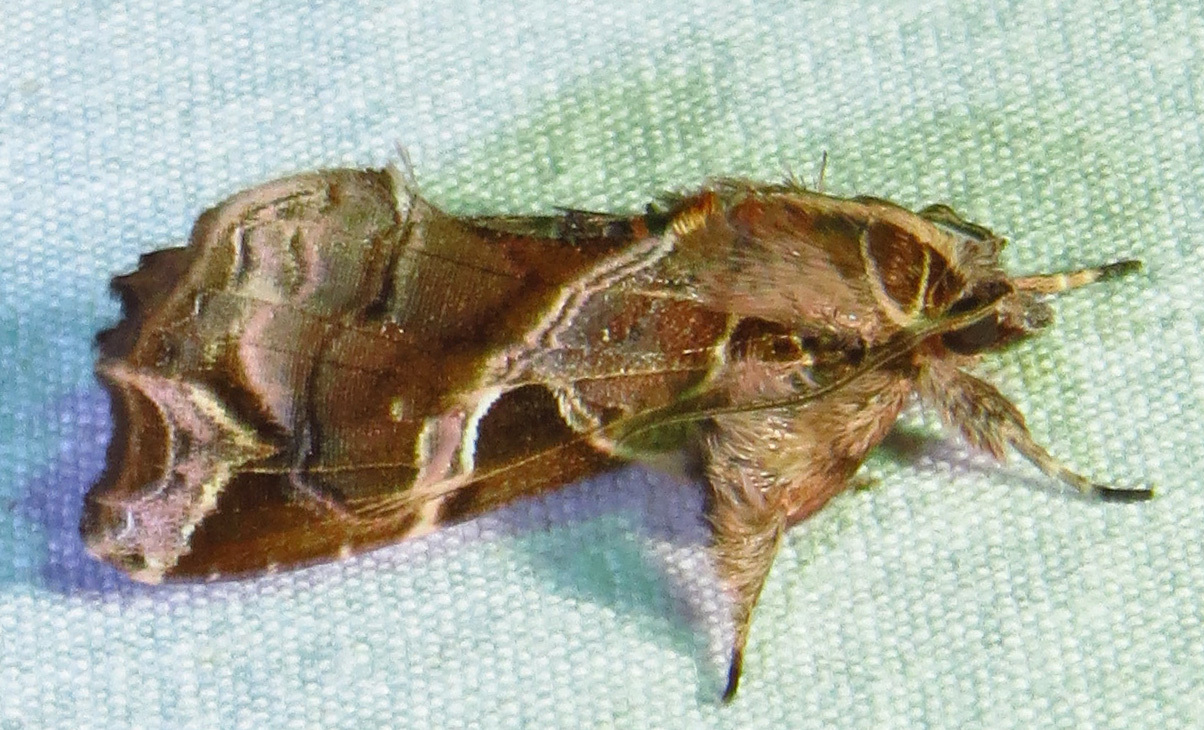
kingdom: Animalia
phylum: Arthropoda
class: Insecta
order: Lepidoptera
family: Noctuidae
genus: Callopistria
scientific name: Callopistria floridensis
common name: Florida fern moth
